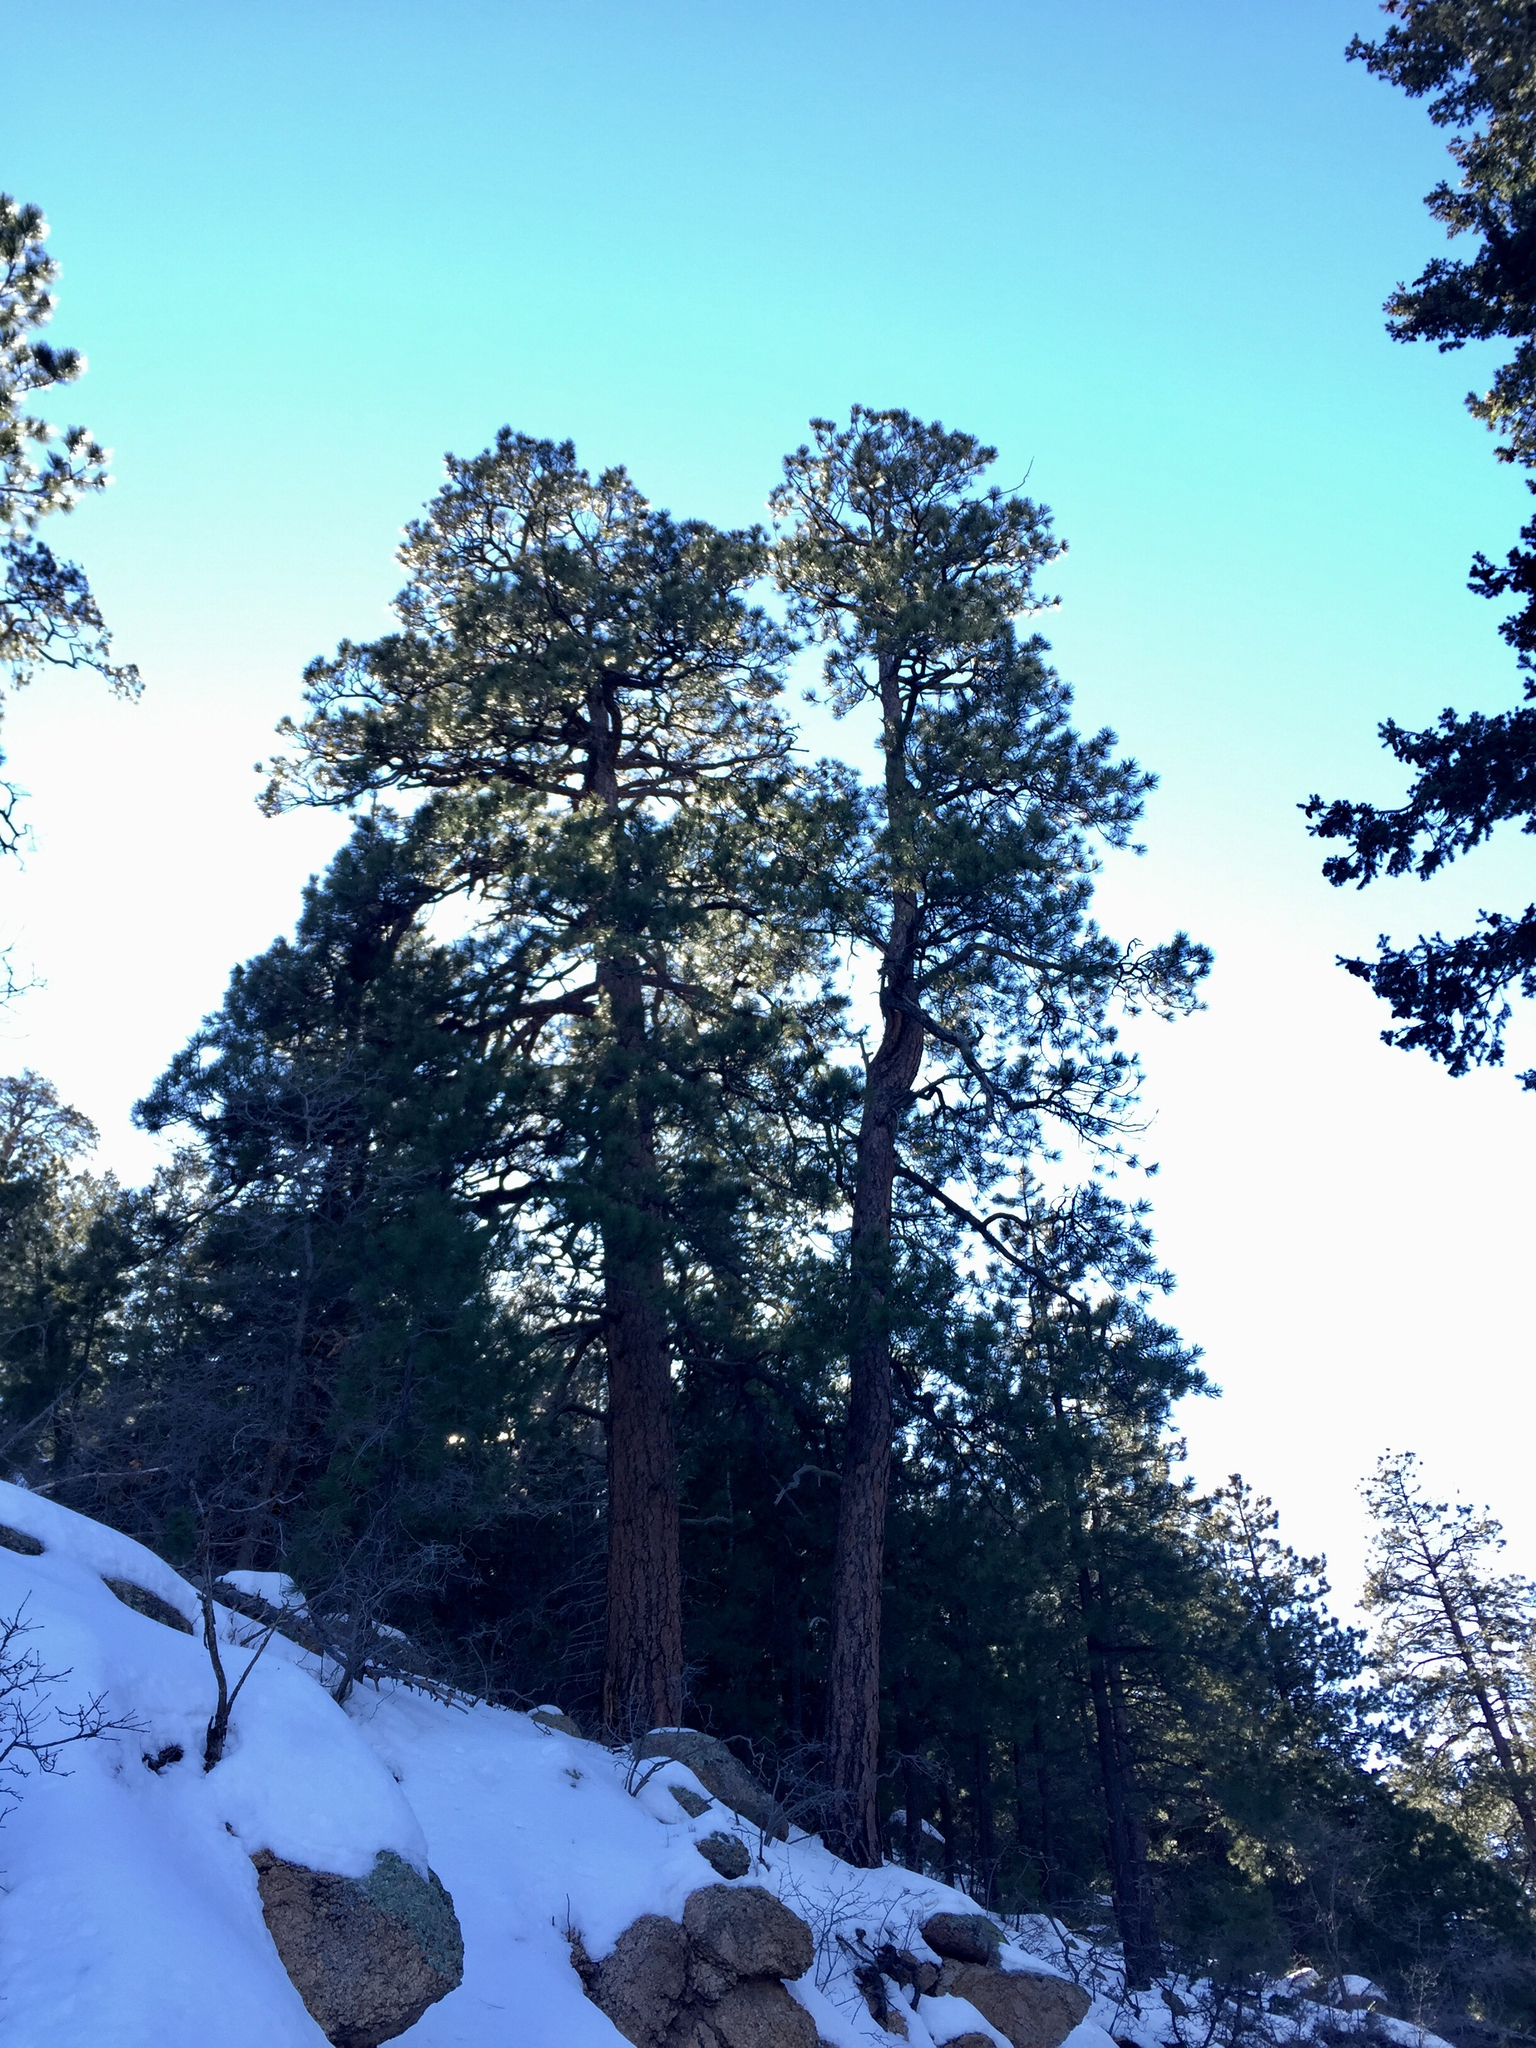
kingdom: Plantae
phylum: Tracheophyta
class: Pinopsida
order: Pinales
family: Pinaceae
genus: Pinus
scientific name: Pinus ponderosa
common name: Western yellow-pine
